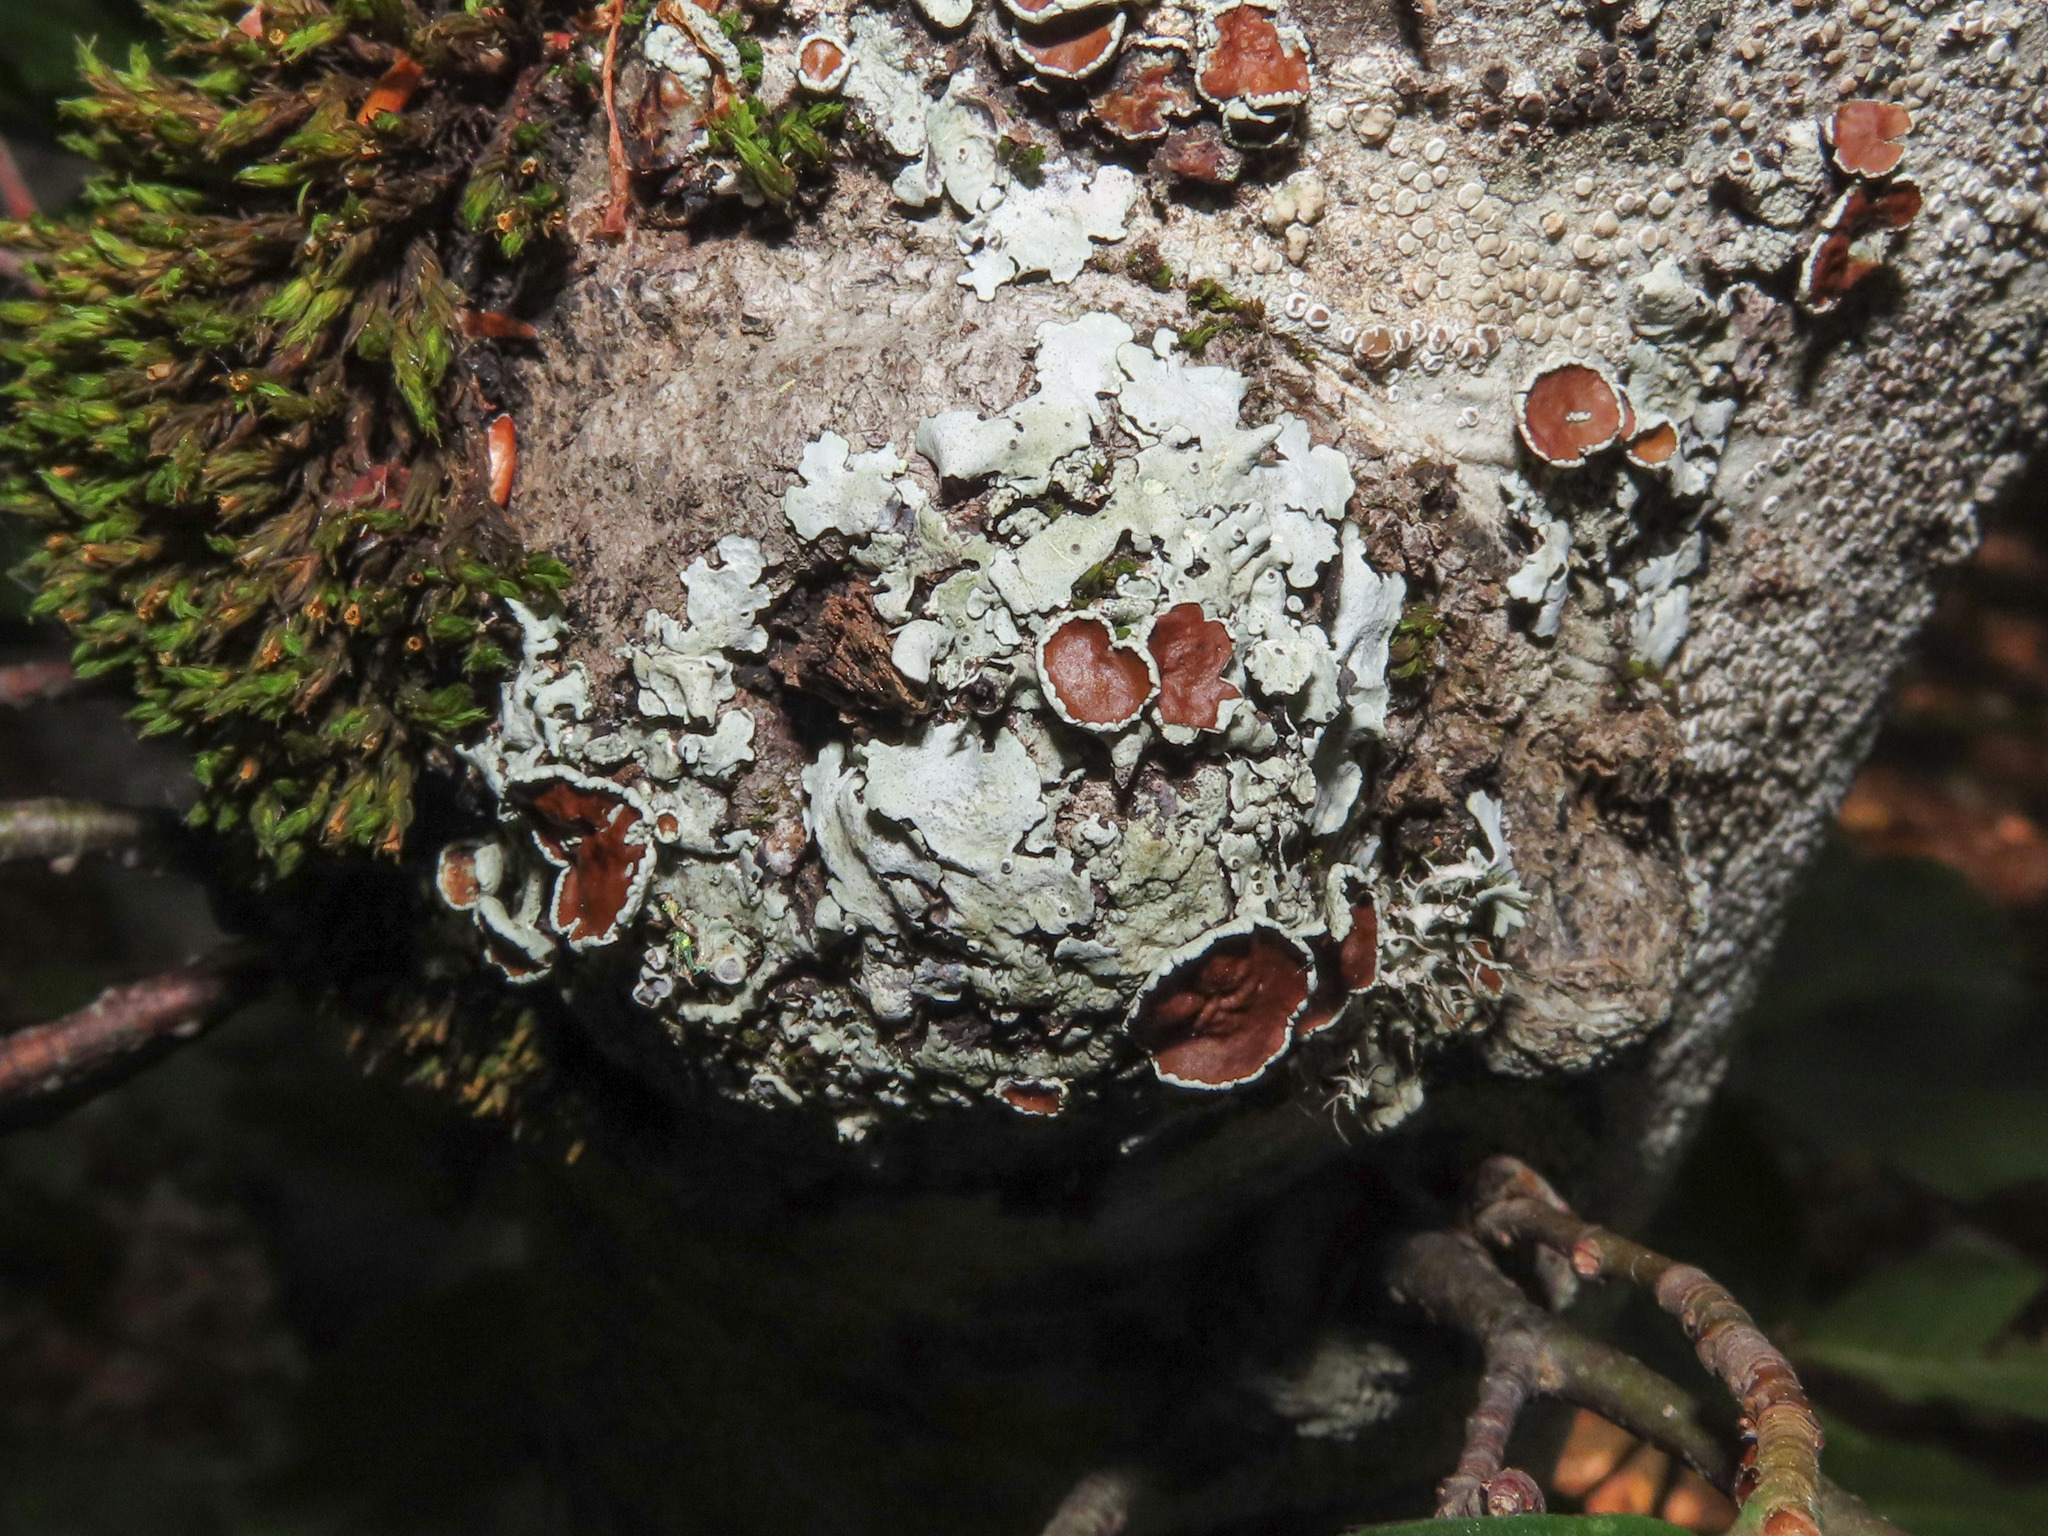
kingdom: Fungi
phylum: Ascomycota
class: Lecanoromycetes
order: Lecanorales
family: Parmeliaceae
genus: Parmelina
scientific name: Parmelina quercina
